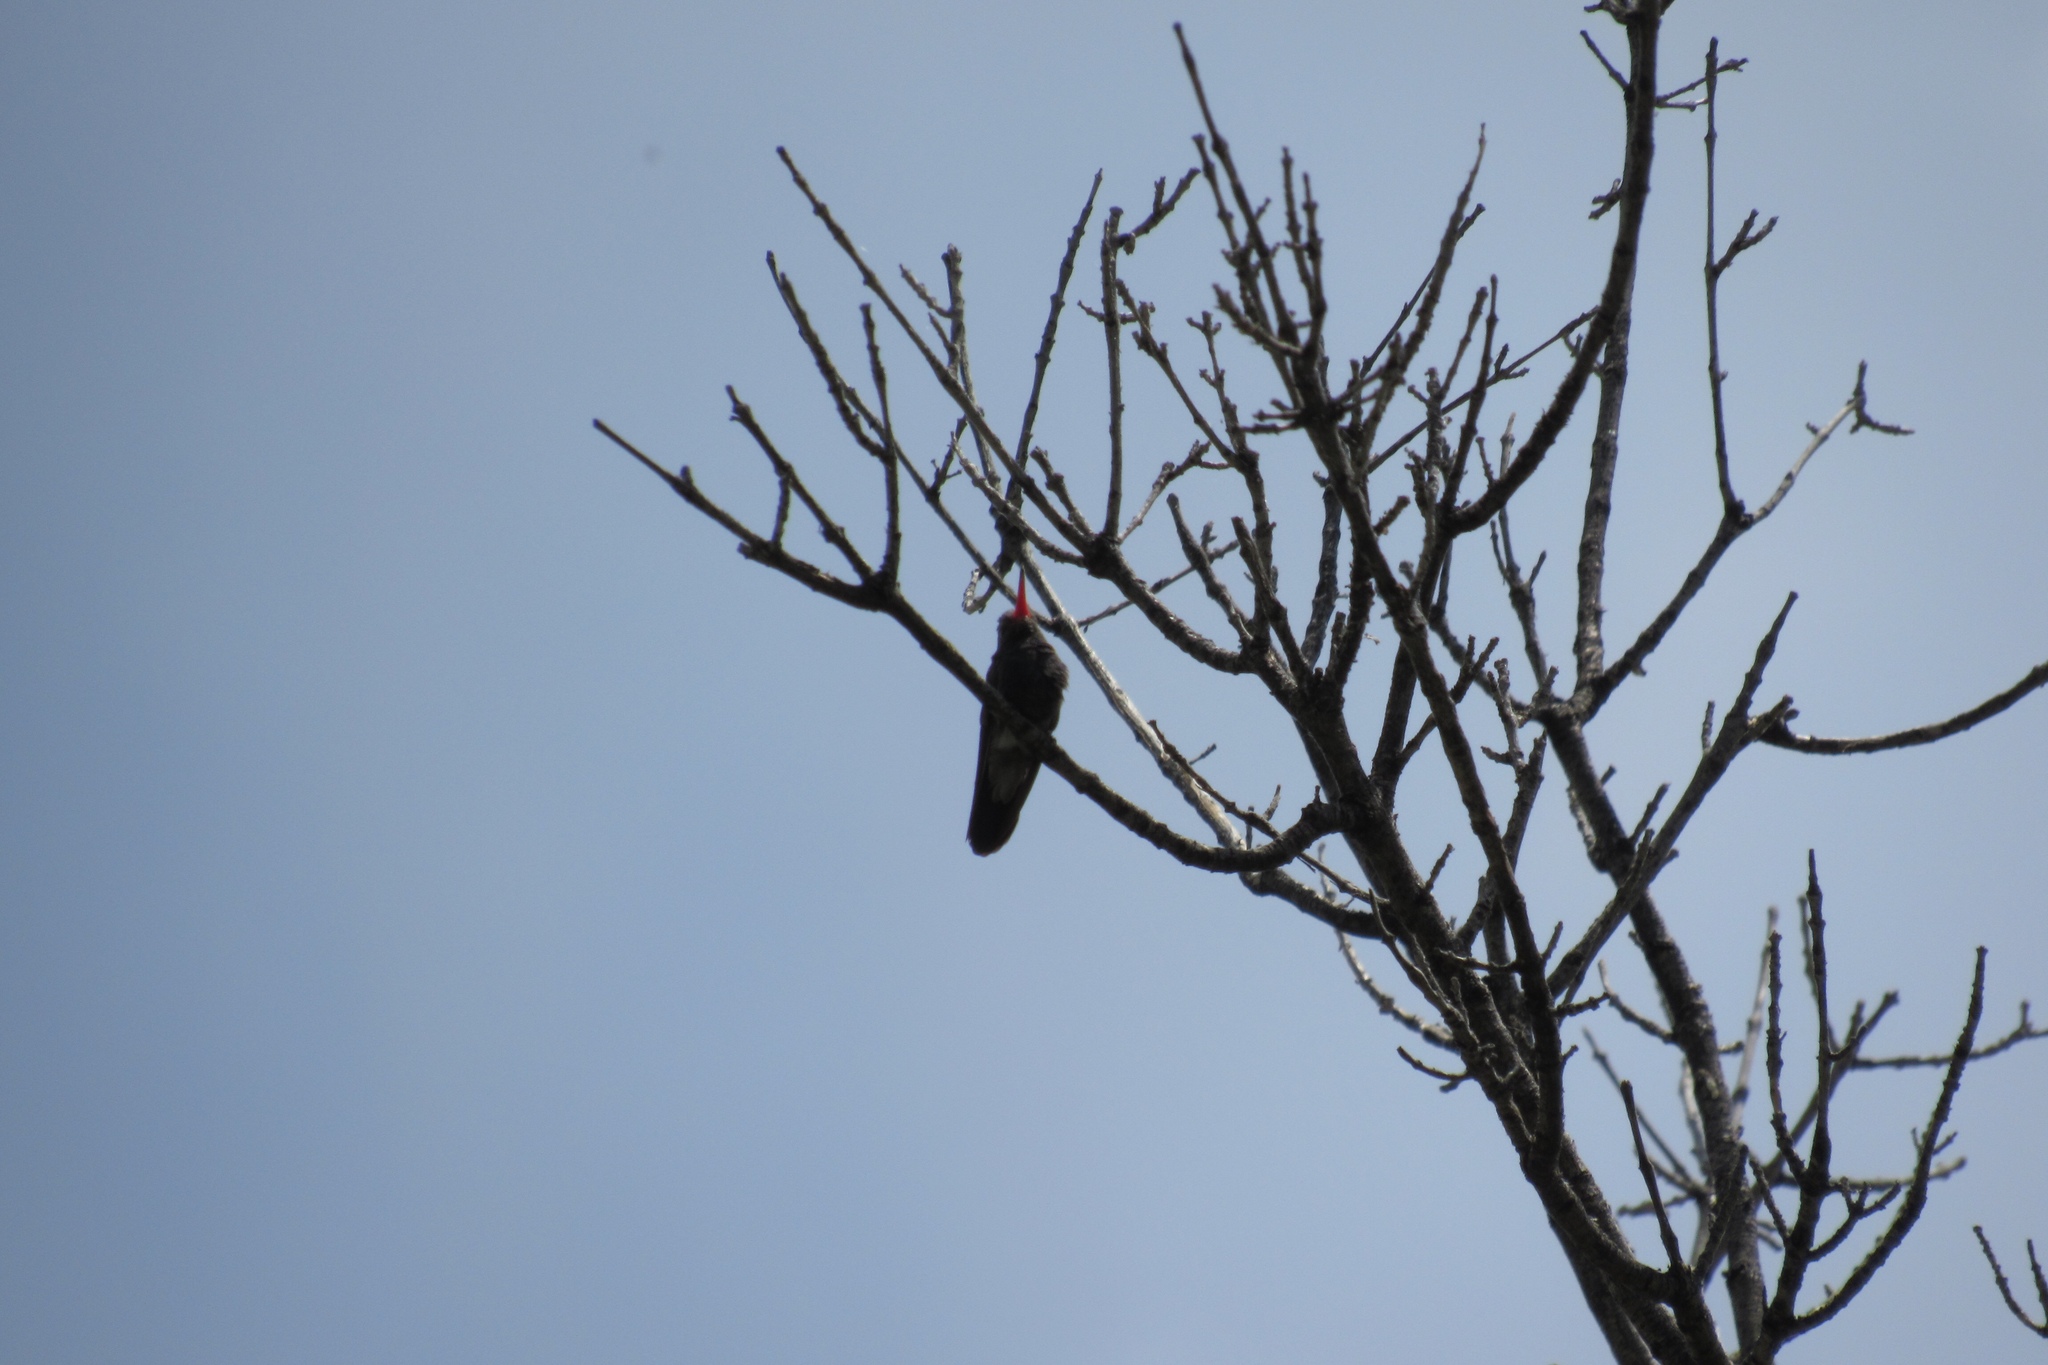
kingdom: Animalia
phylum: Chordata
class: Aves
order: Apodiformes
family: Trochilidae
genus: Cynanthus
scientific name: Cynanthus latirostris
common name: Broad-billed hummingbird
